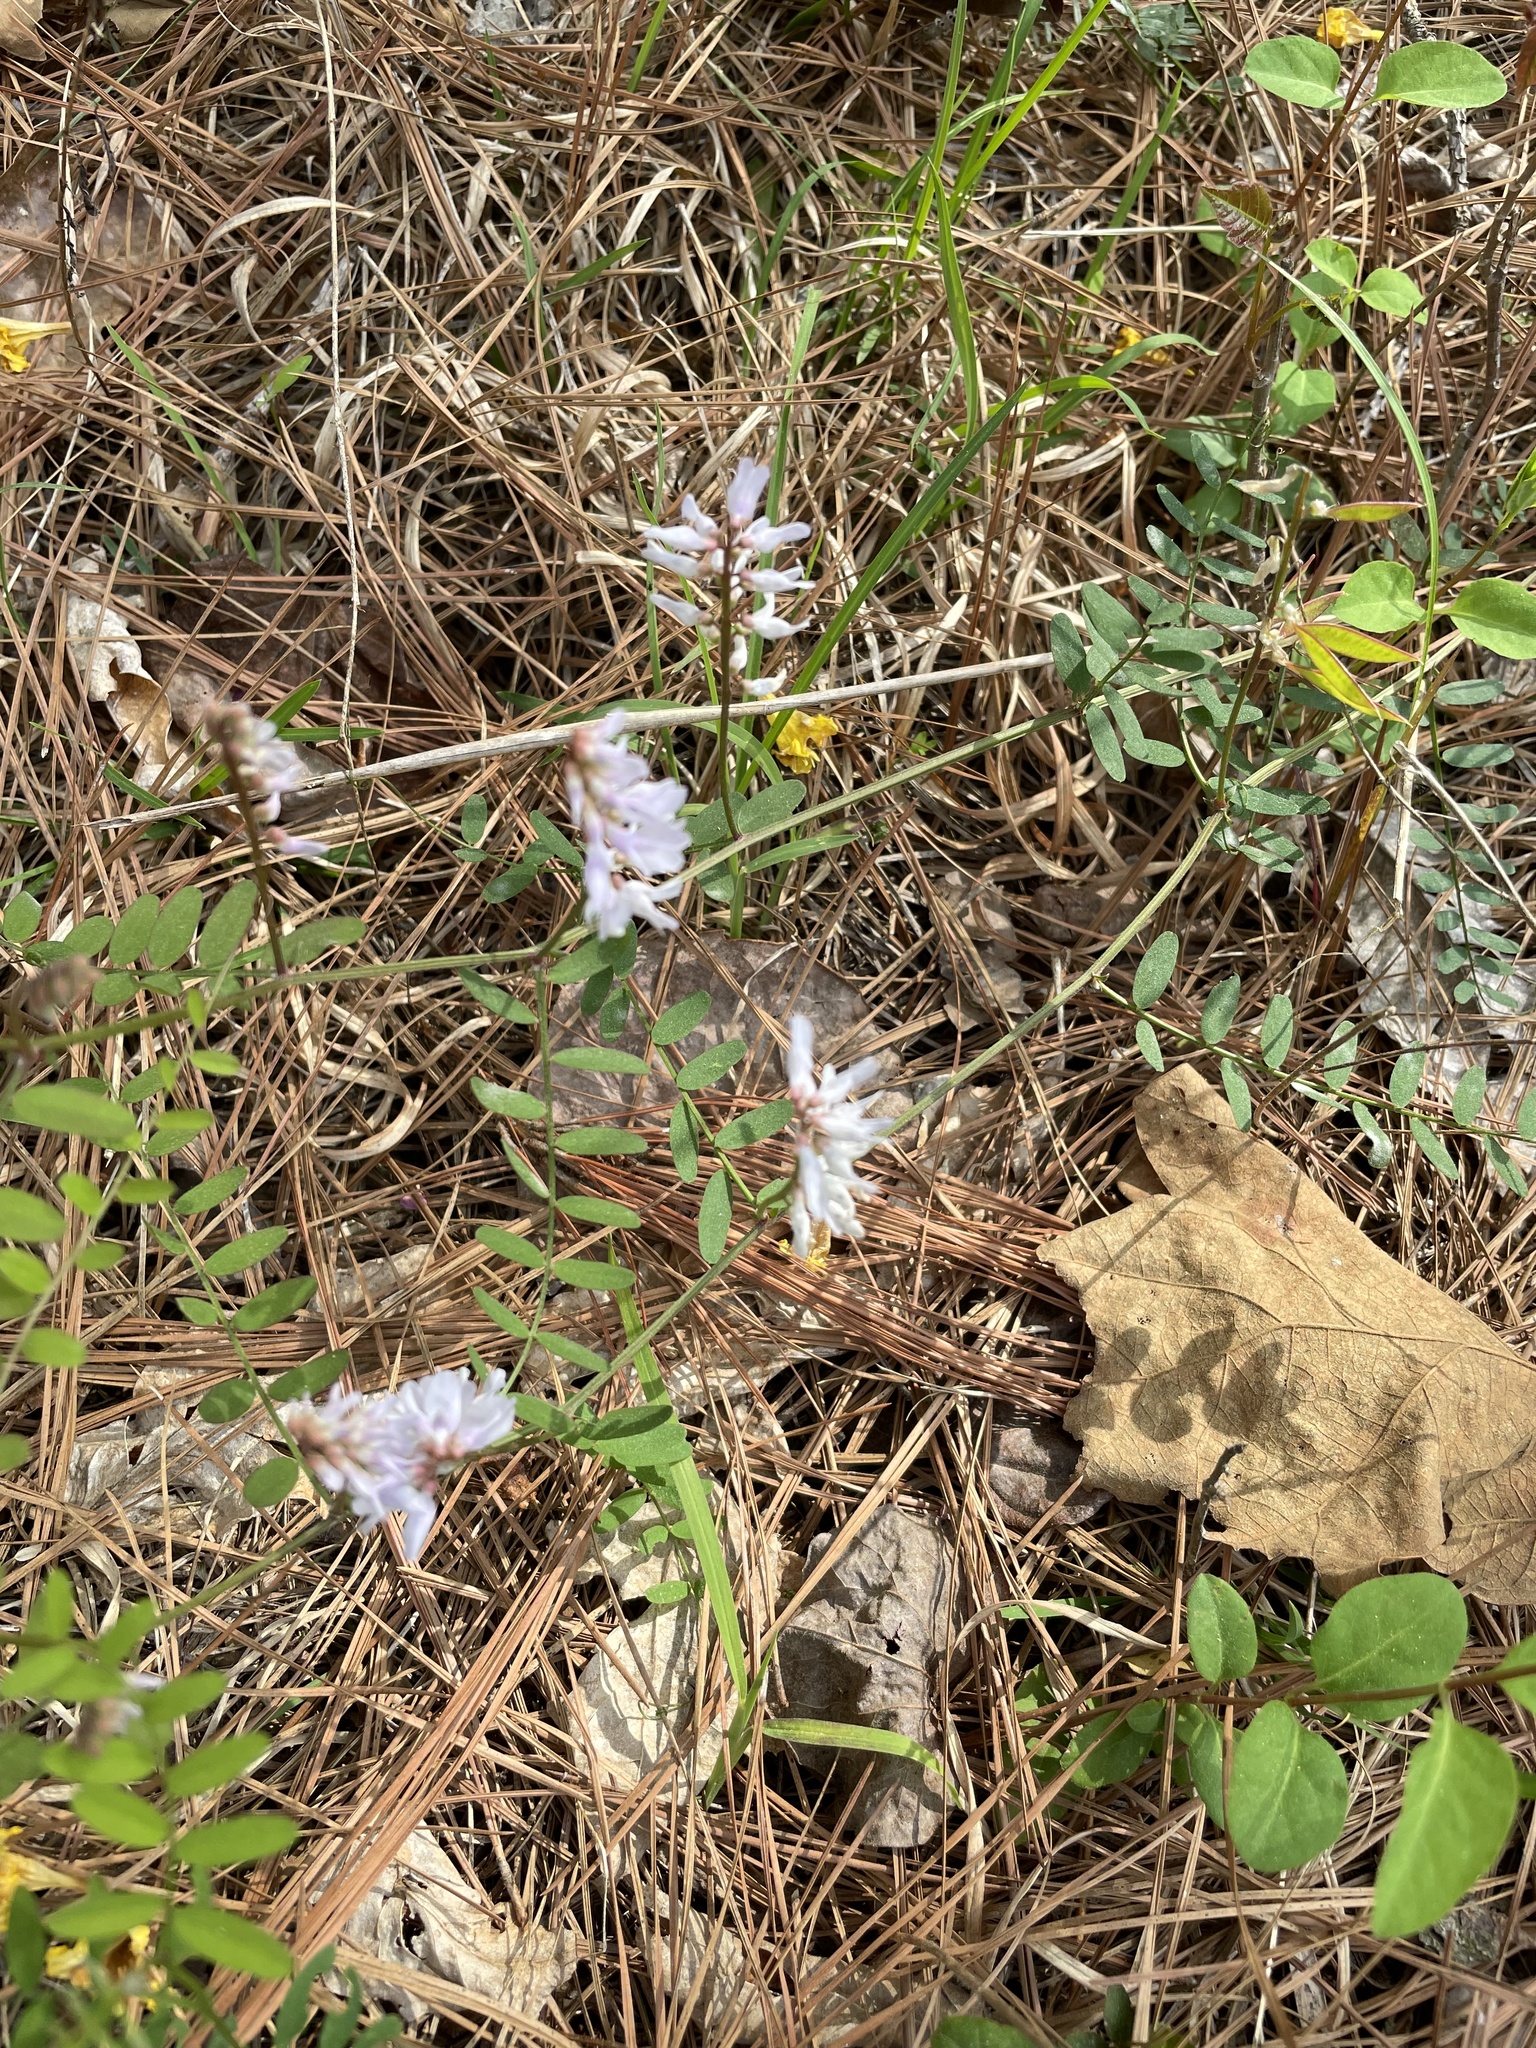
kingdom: Plantae
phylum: Tracheophyta
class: Magnoliopsida
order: Fabales
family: Fabaceae
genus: Vicia
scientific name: Vicia caroliniana
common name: Carolina vetch
